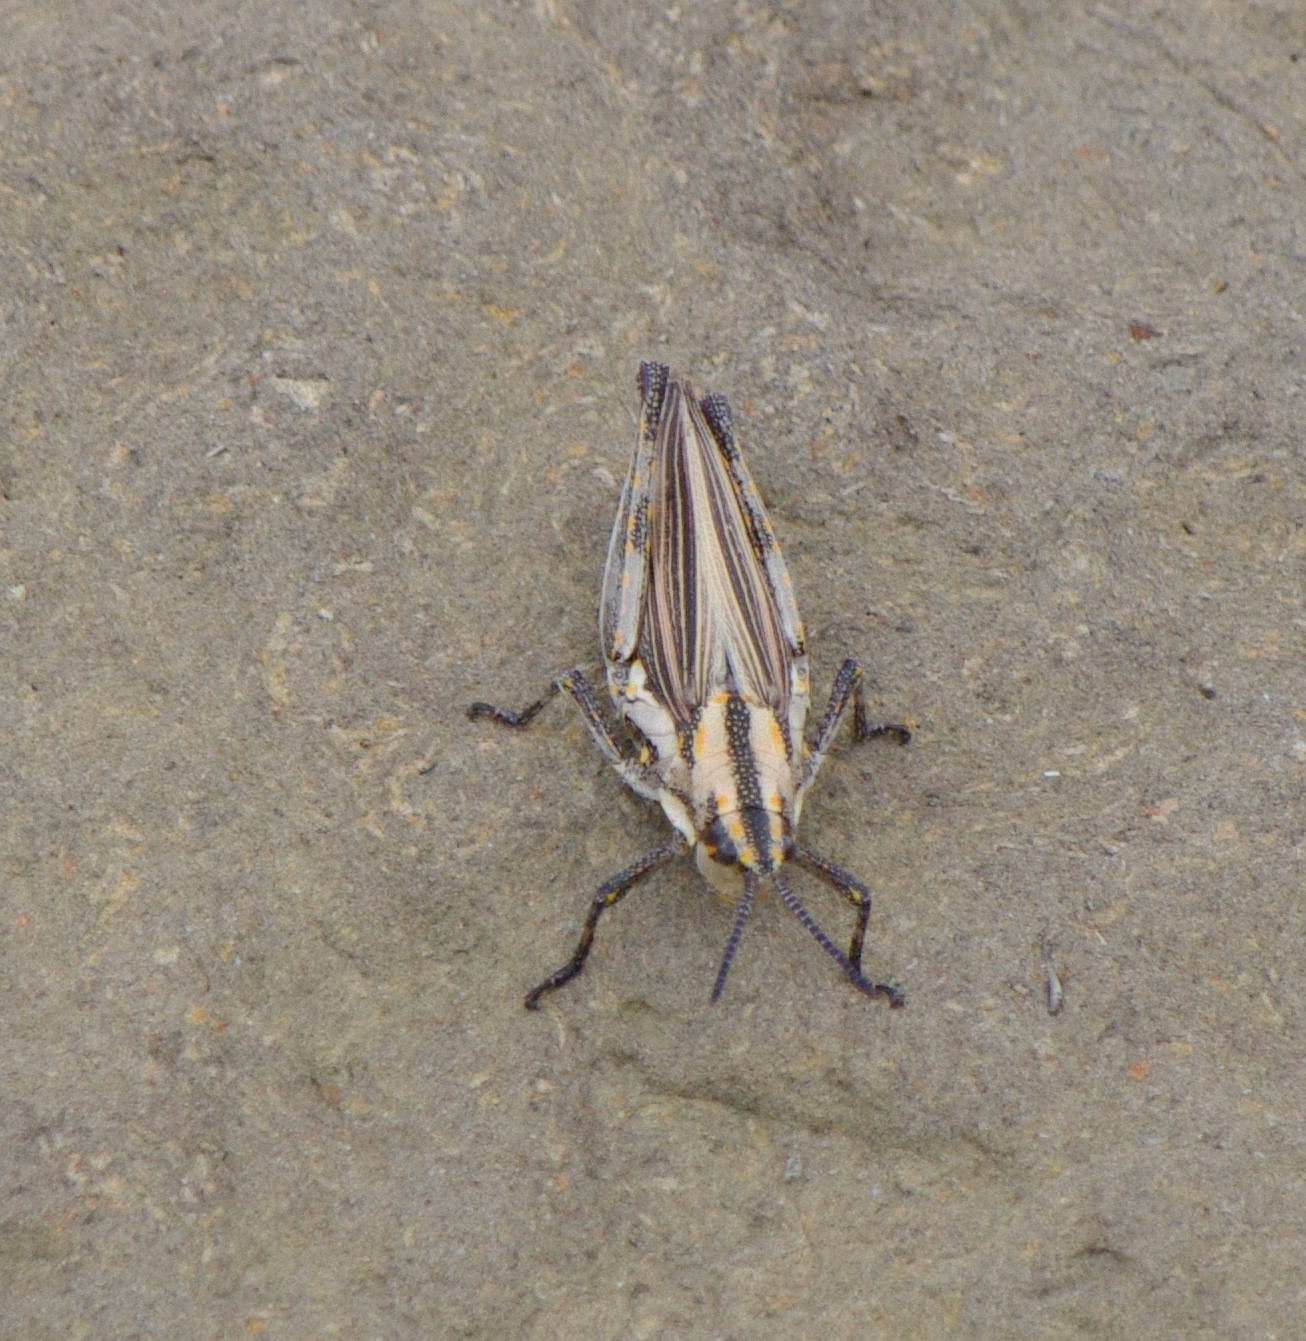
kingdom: Animalia
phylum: Arthropoda
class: Insecta
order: Orthoptera
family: Pyrgomorphidae
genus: Ochrophlebia
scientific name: Ochrophlebia cafra
